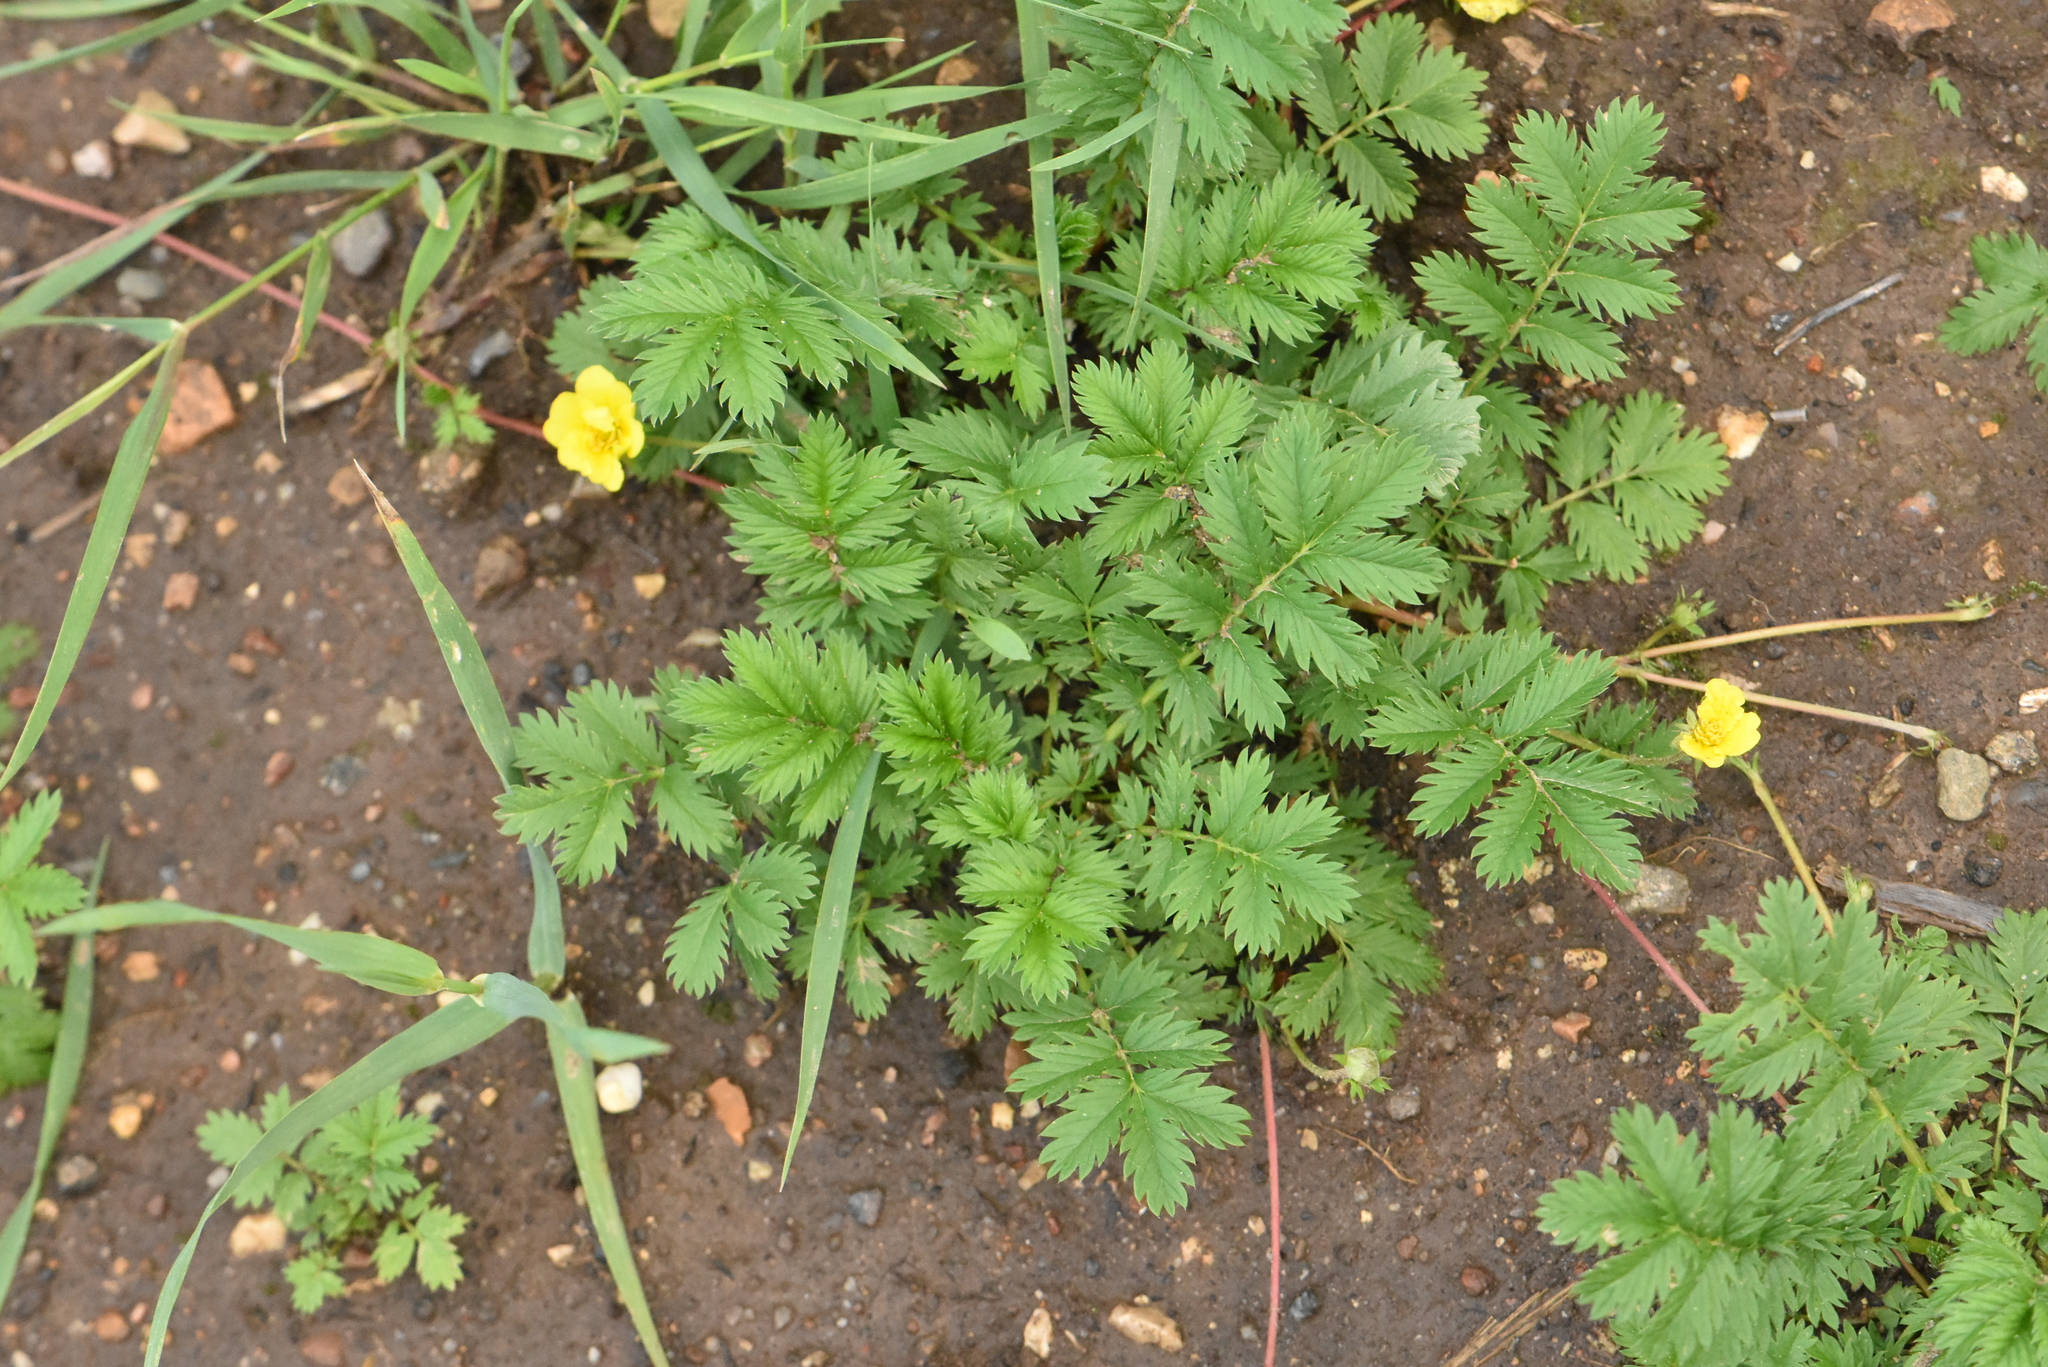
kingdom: Plantae
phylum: Tracheophyta
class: Magnoliopsida
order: Rosales
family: Rosaceae
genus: Argentina
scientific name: Argentina anserina
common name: Common silverweed
